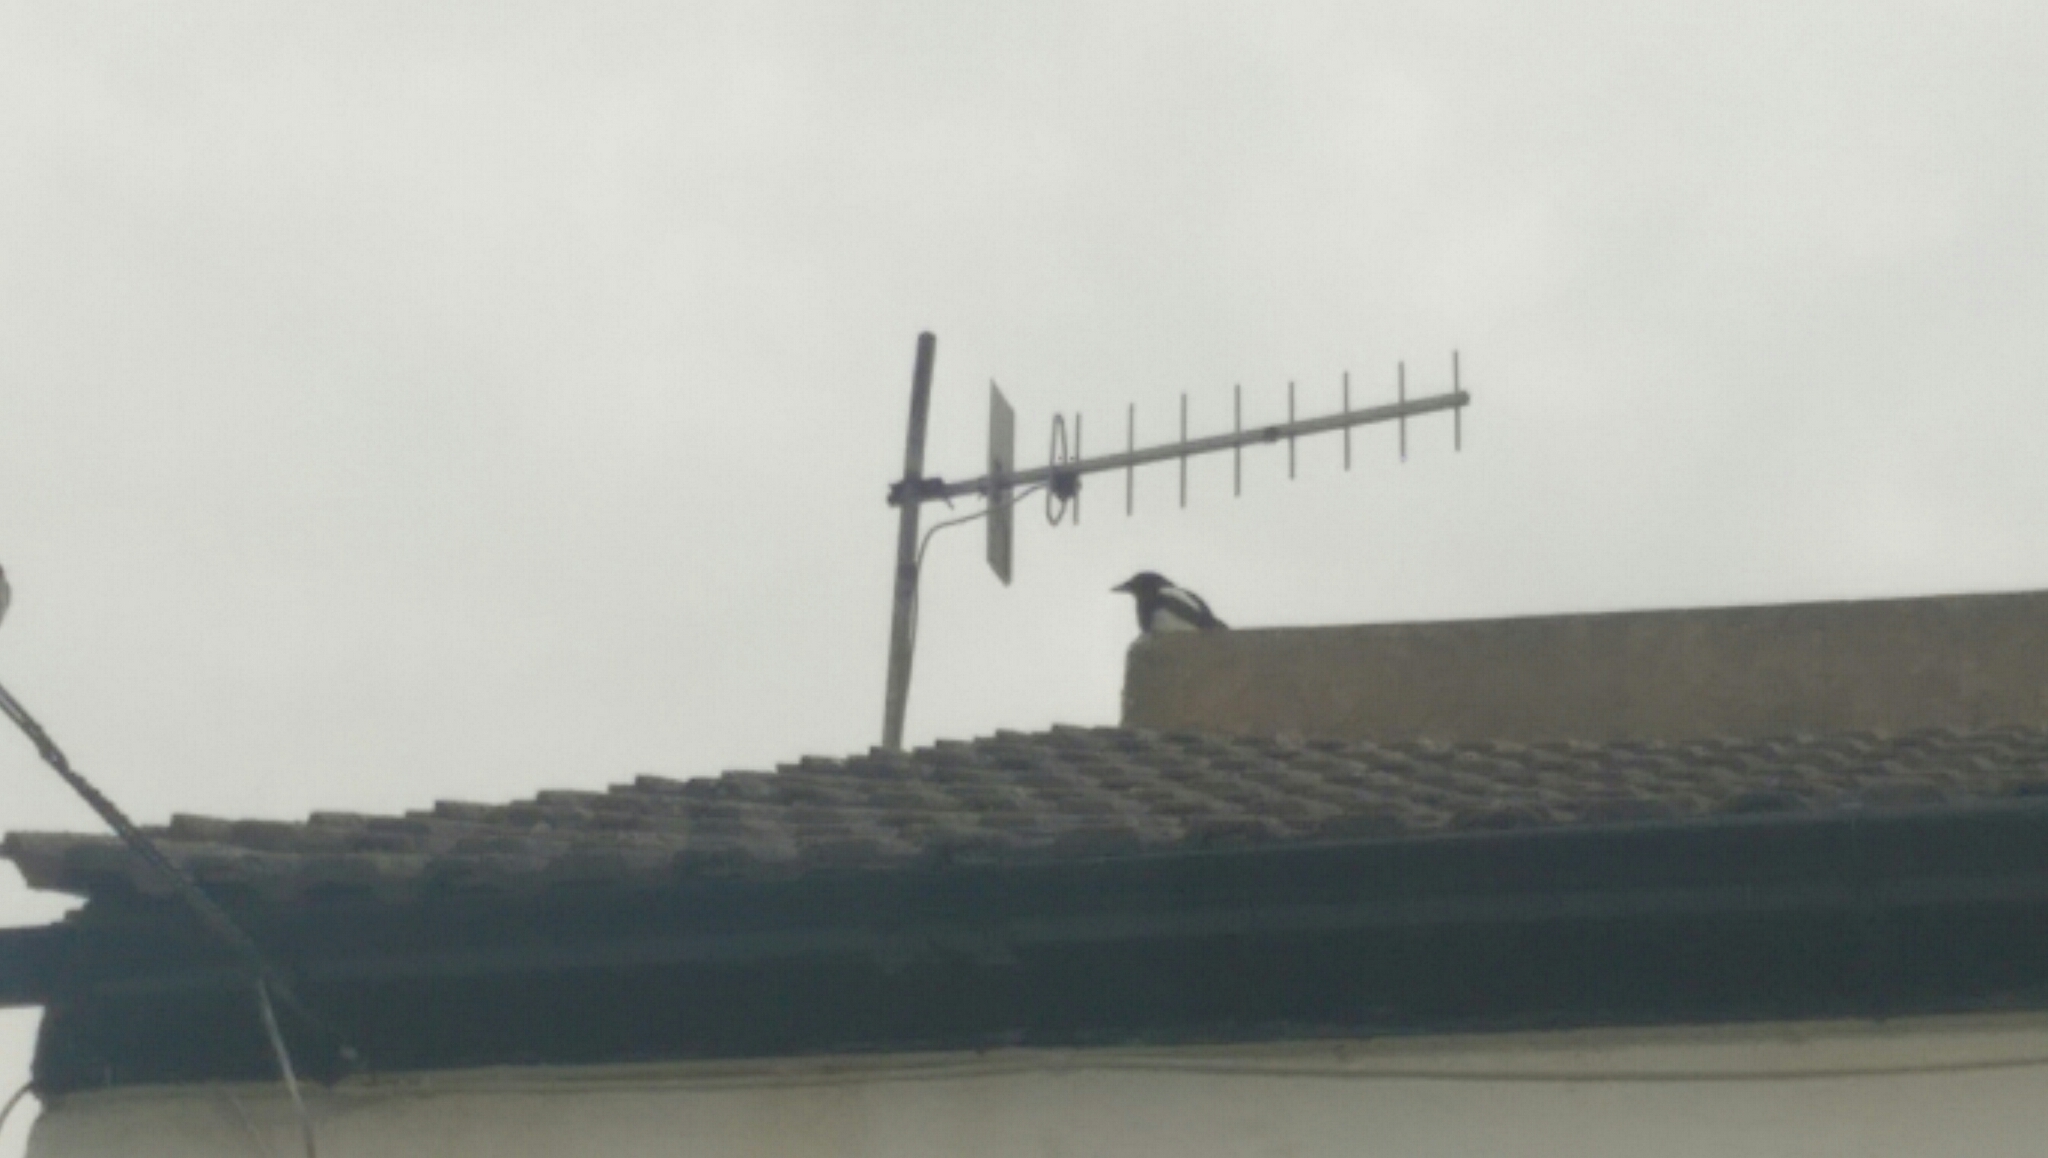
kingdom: Animalia
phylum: Chordata
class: Aves
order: Passeriformes
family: Corvidae
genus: Pica
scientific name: Pica pica
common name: Eurasian magpie
